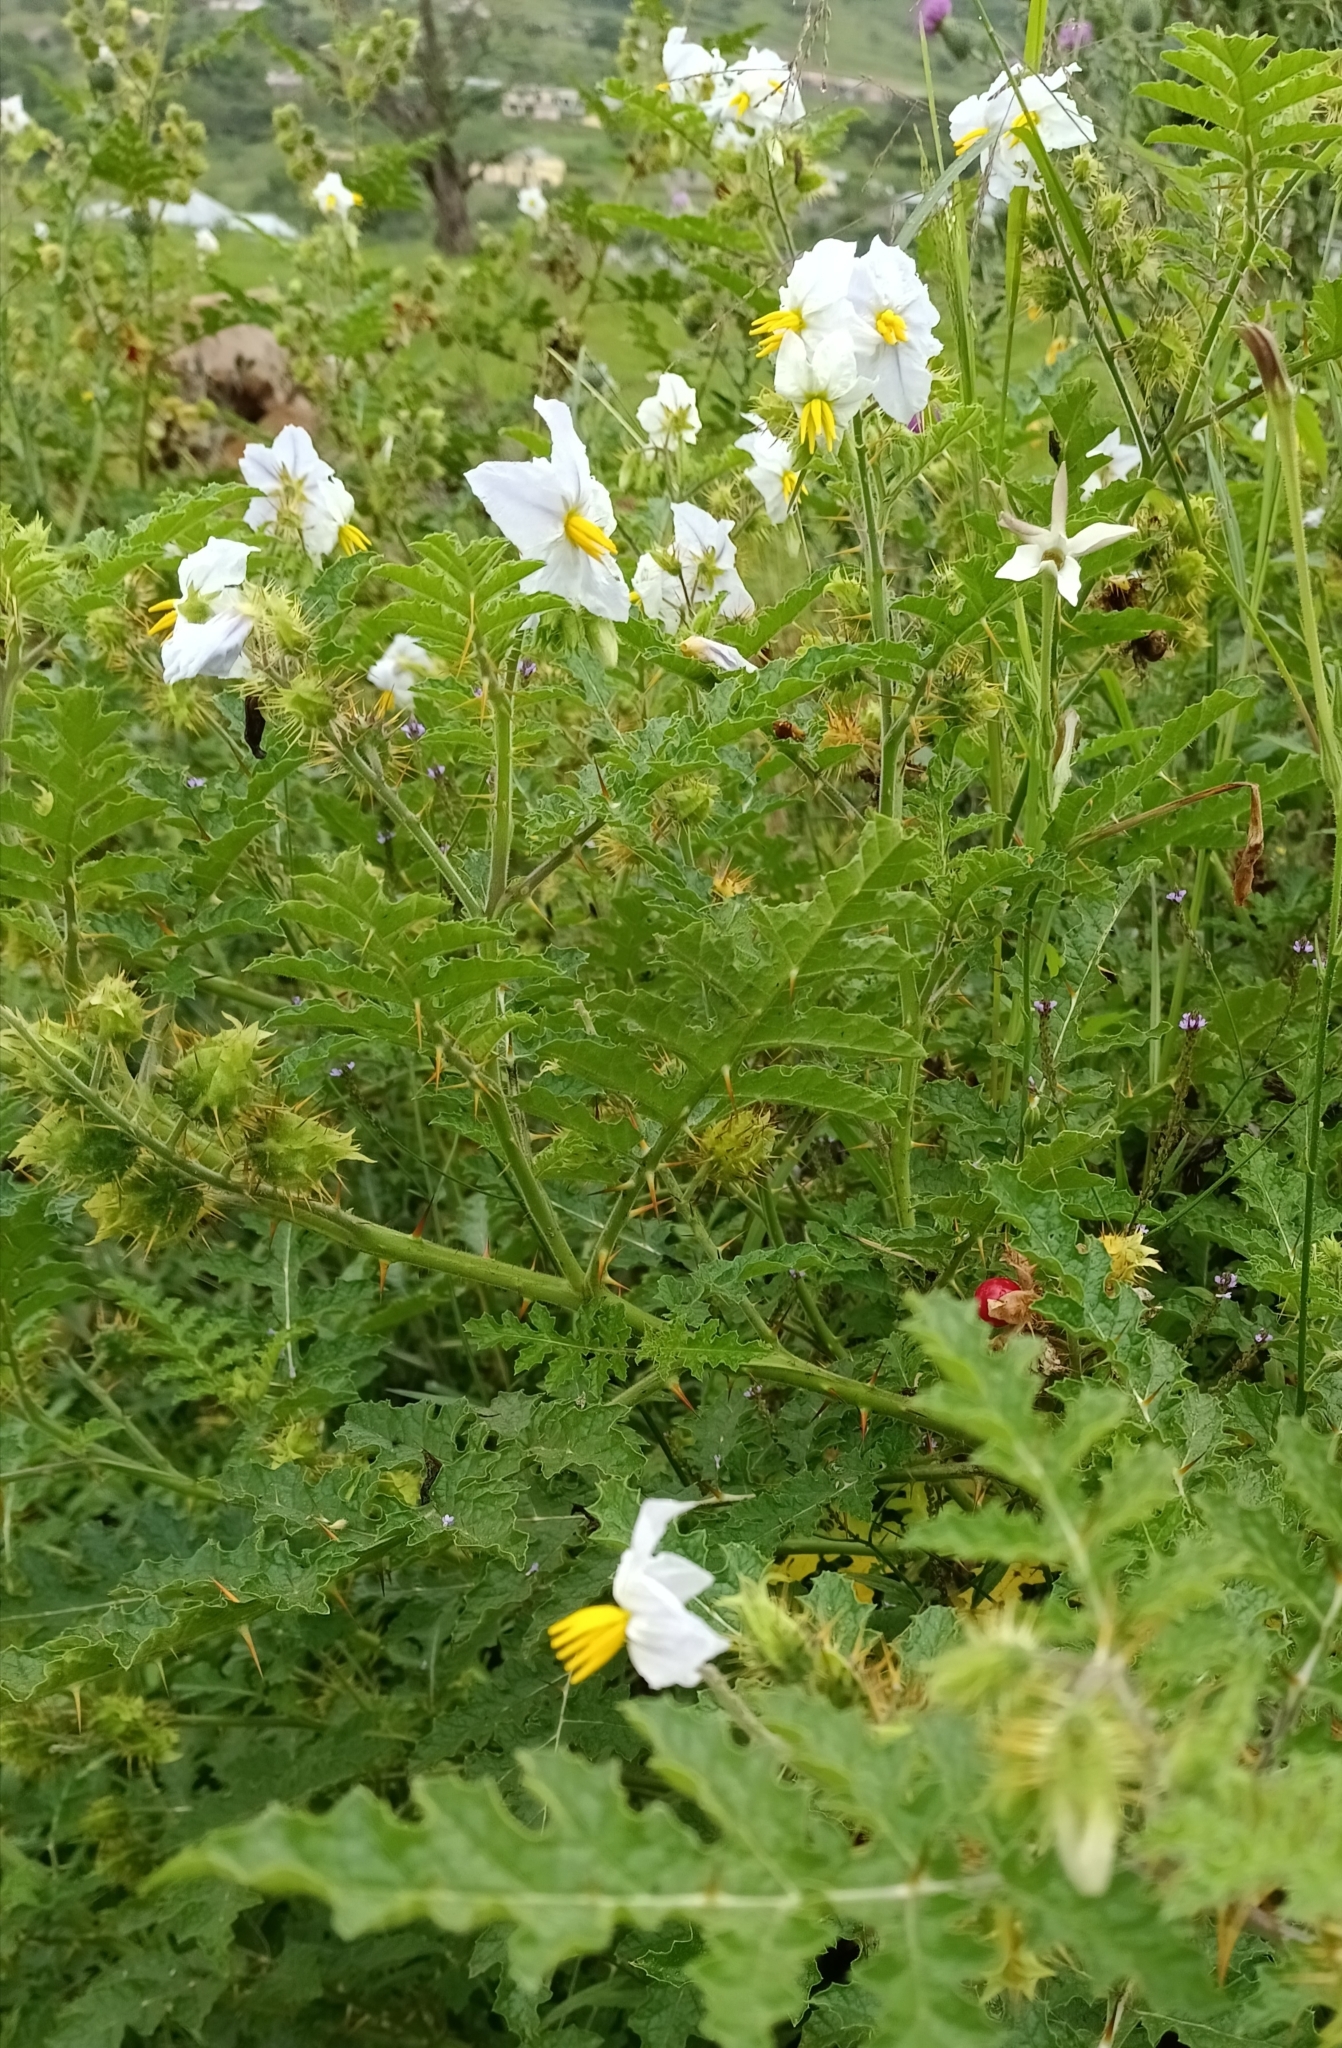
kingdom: Plantae
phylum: Tracheophyta
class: Magnoliopsida
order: Solanales
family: Solanaceae
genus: Solanum
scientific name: Solanum sisymbriifolium
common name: Red buffalo-bur
